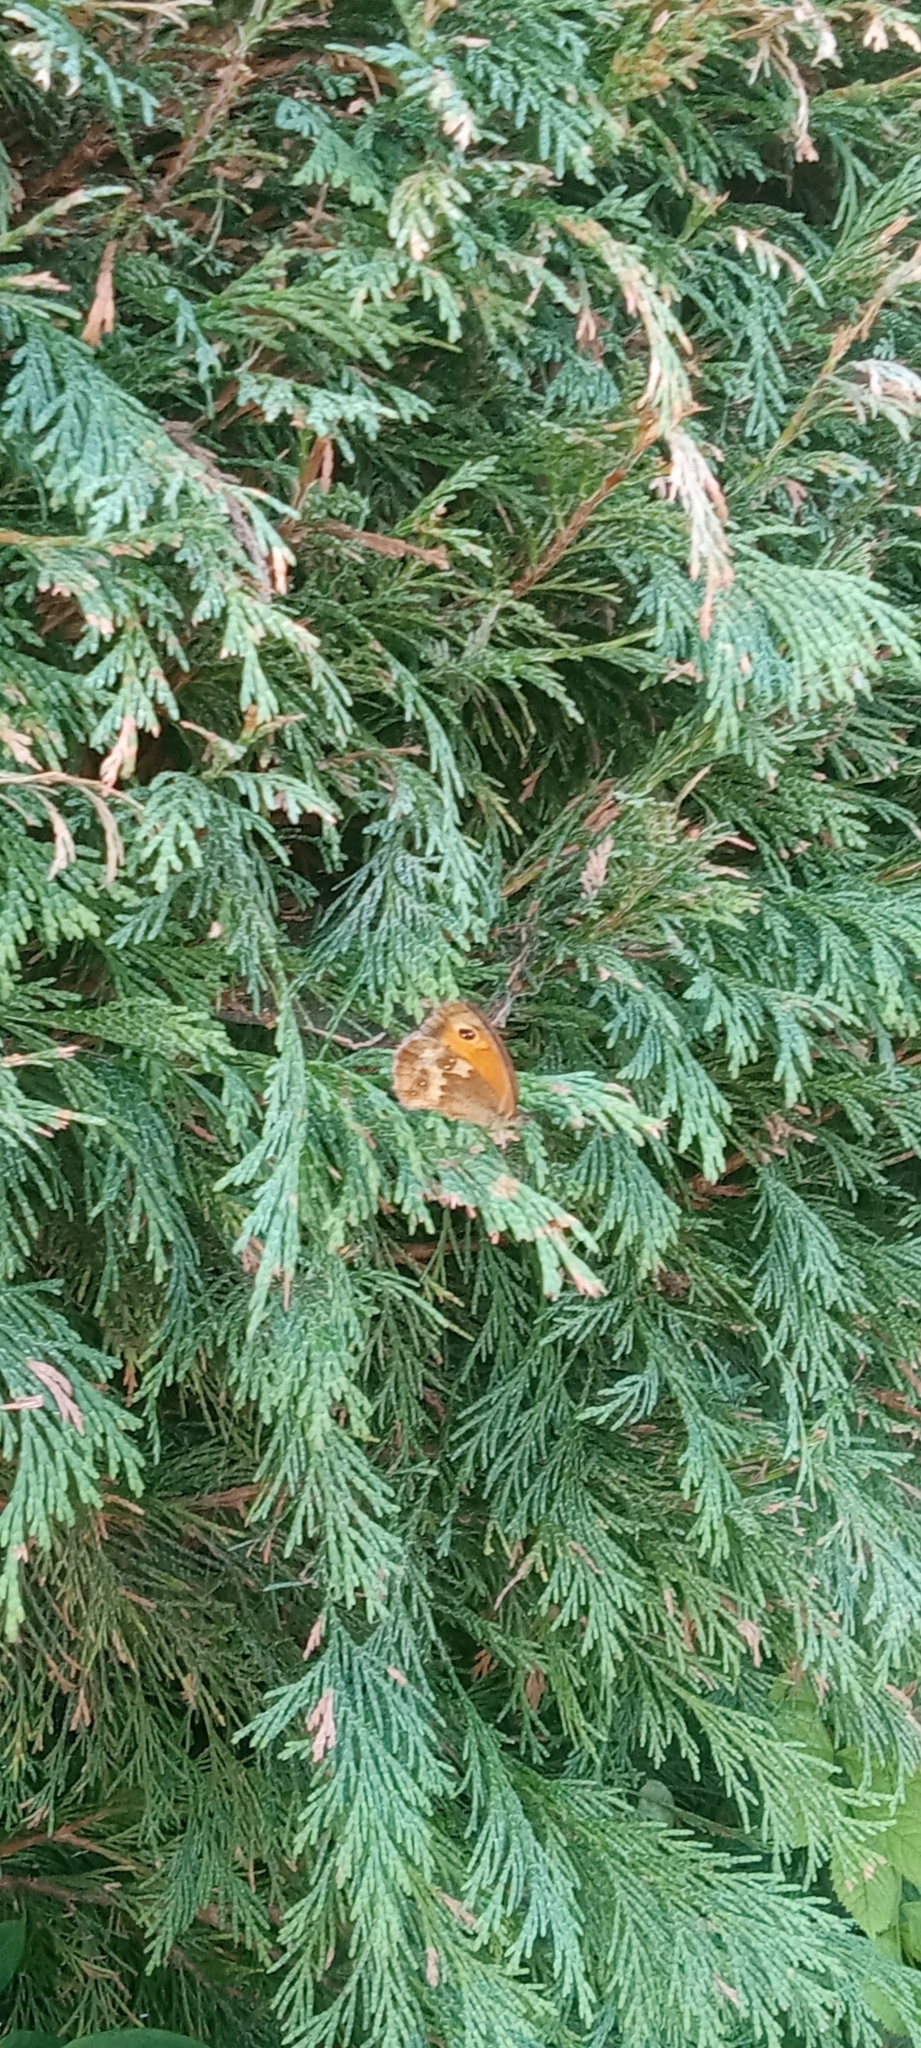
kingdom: Animalia
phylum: Arthropoda
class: Insecta
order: Lepidoptera
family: Nymphalidae
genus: Pyronia
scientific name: Pyronia tithonus
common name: Gatekeeper
